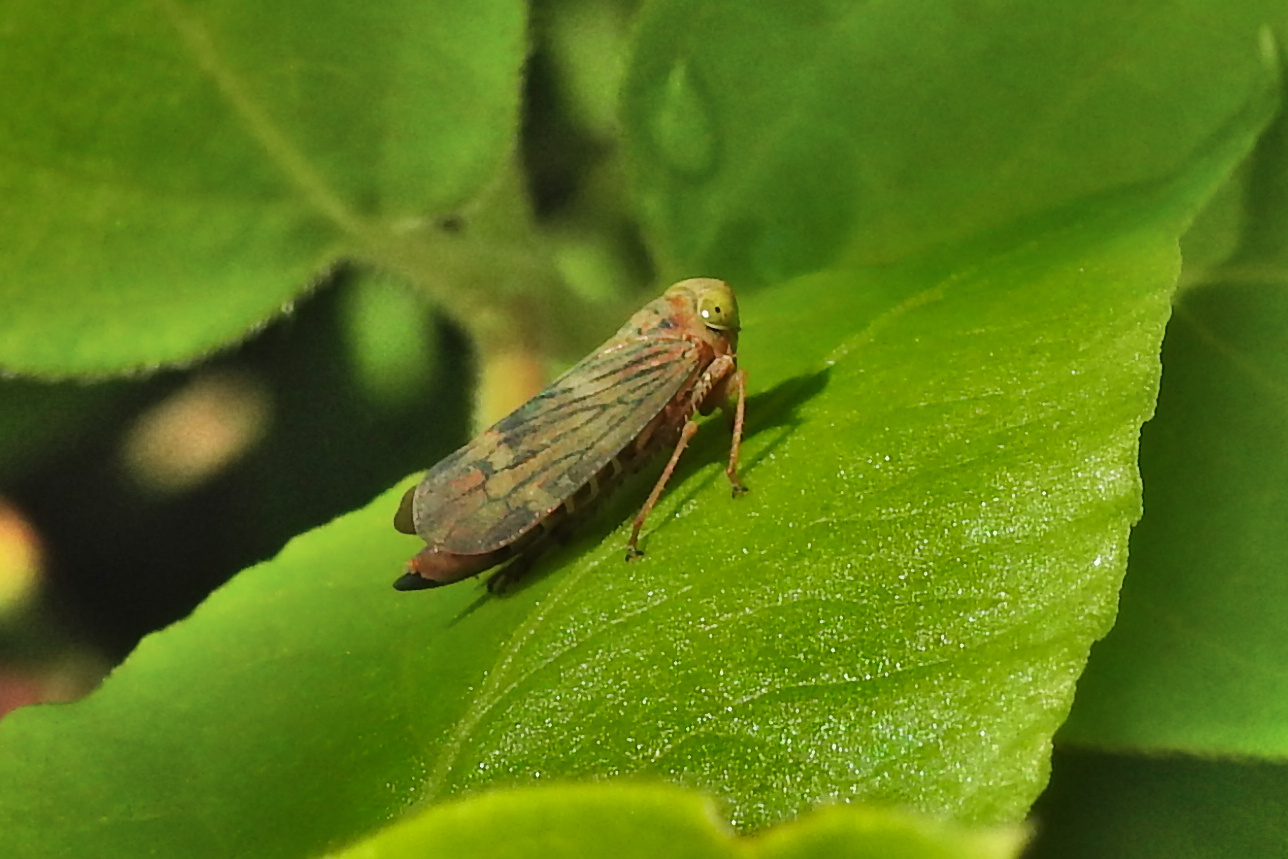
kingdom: Animalia
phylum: Arthropoda
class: Insecta
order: Hemiptera
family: Cicadellidae
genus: Jikradia
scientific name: Jikradia olitoria
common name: Coppery leafhopper
